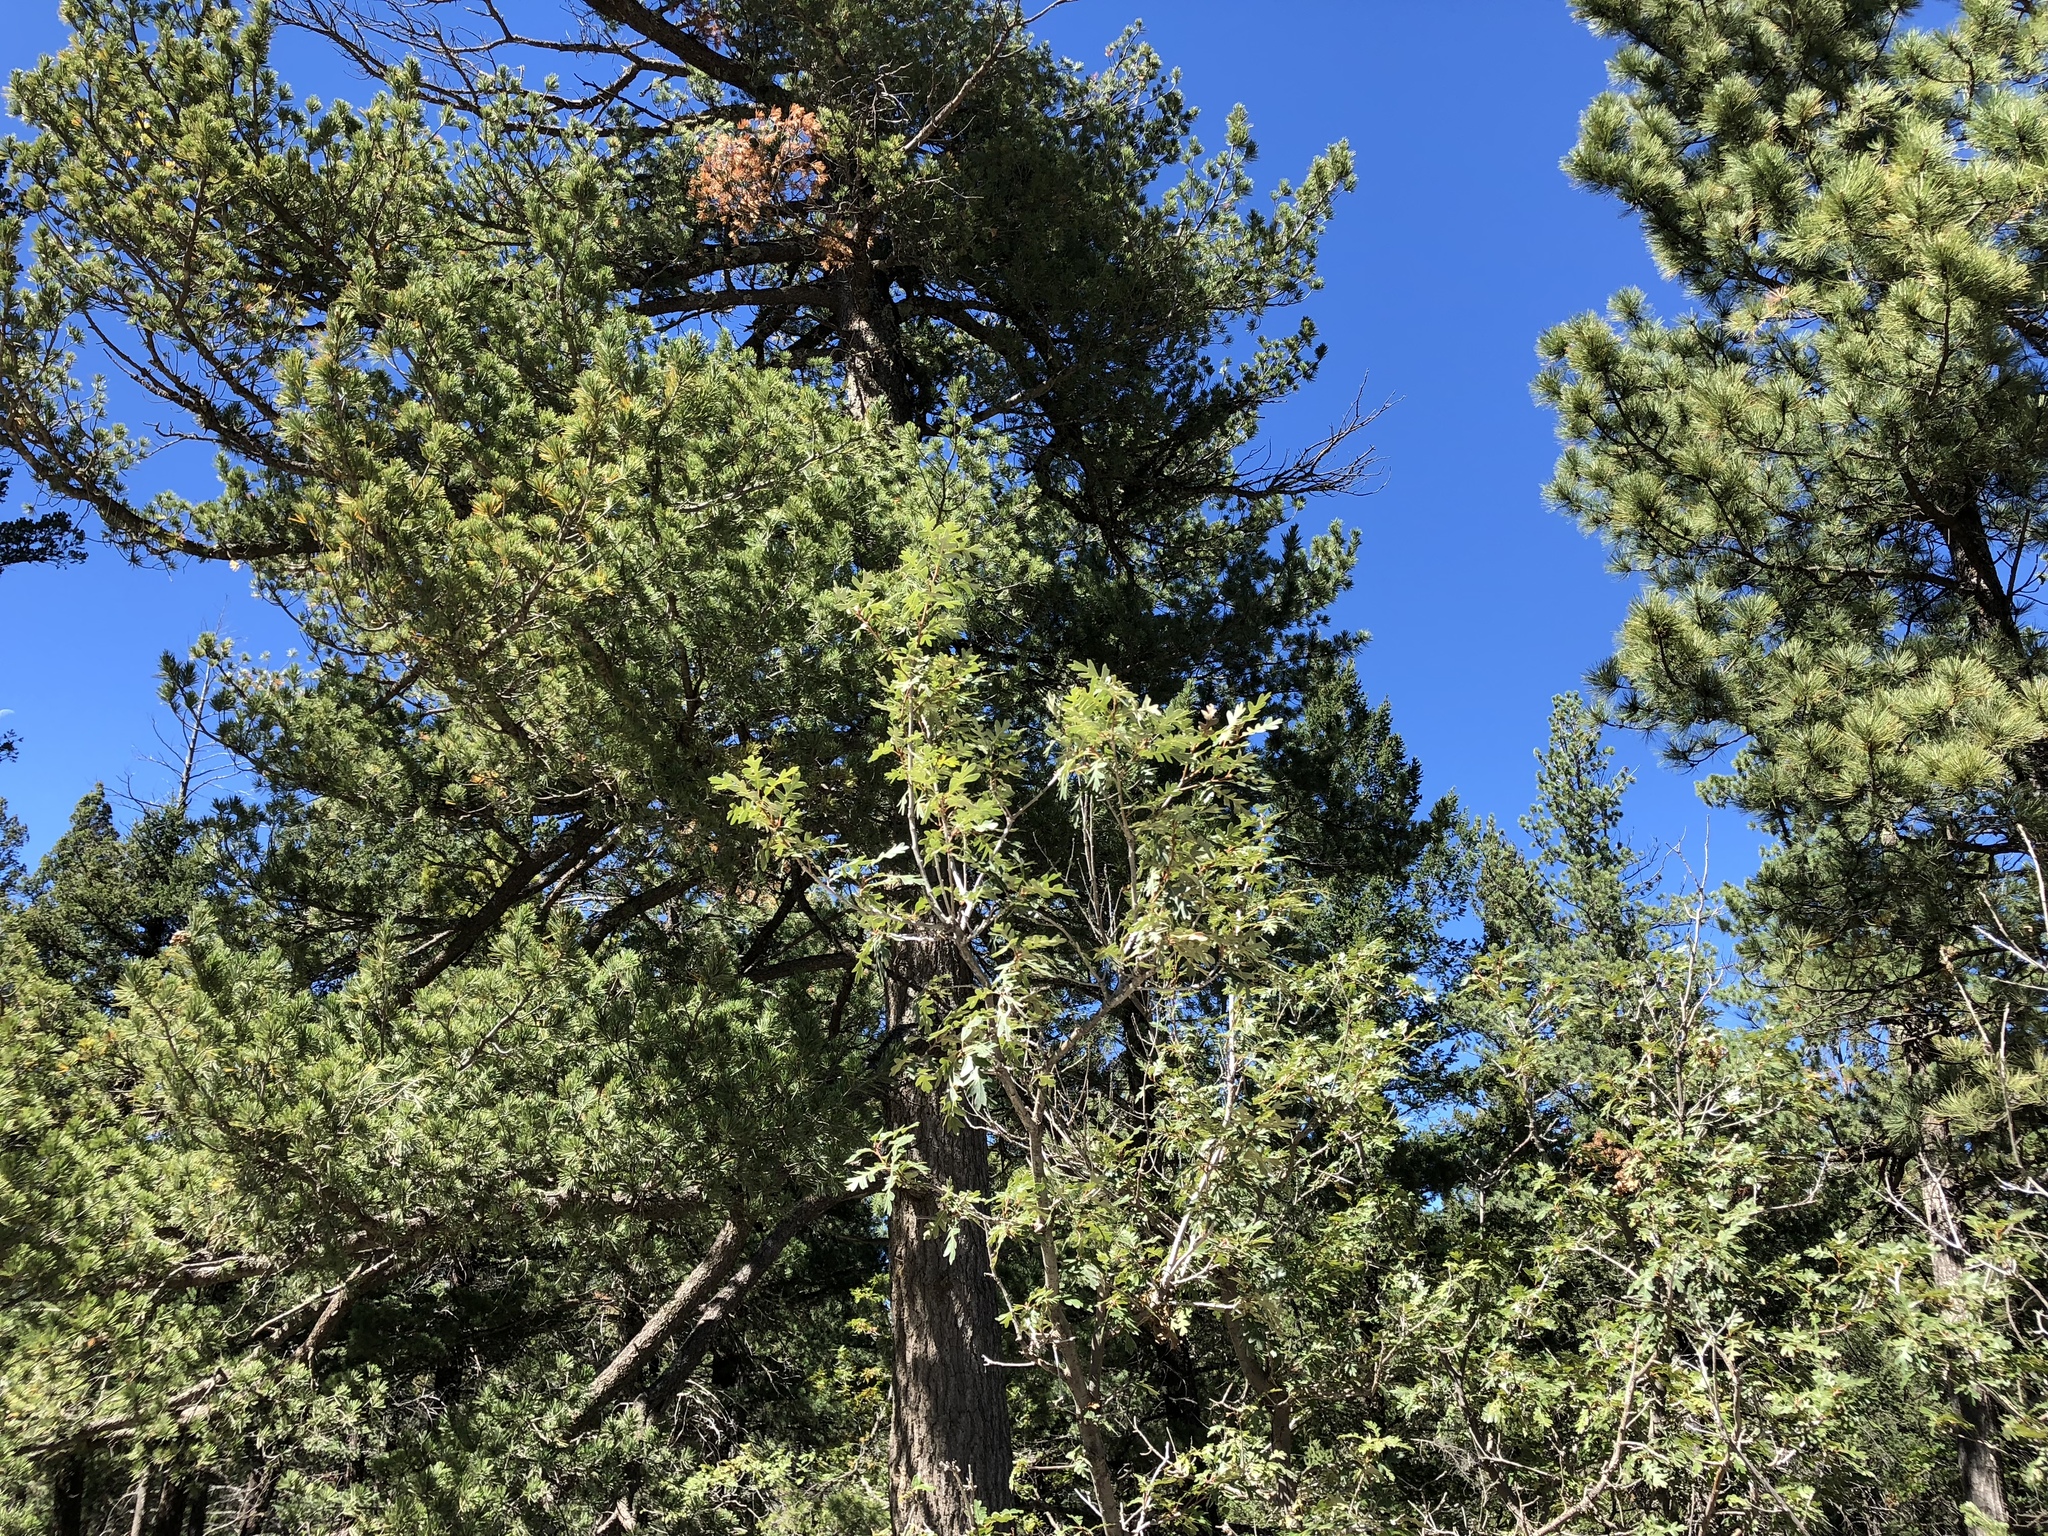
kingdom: Plantae
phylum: Tracheophyta
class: Magnoliopsida
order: Fagales
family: Fagaceae
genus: Quercus
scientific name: Quercus gambelii
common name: Gambel oak
